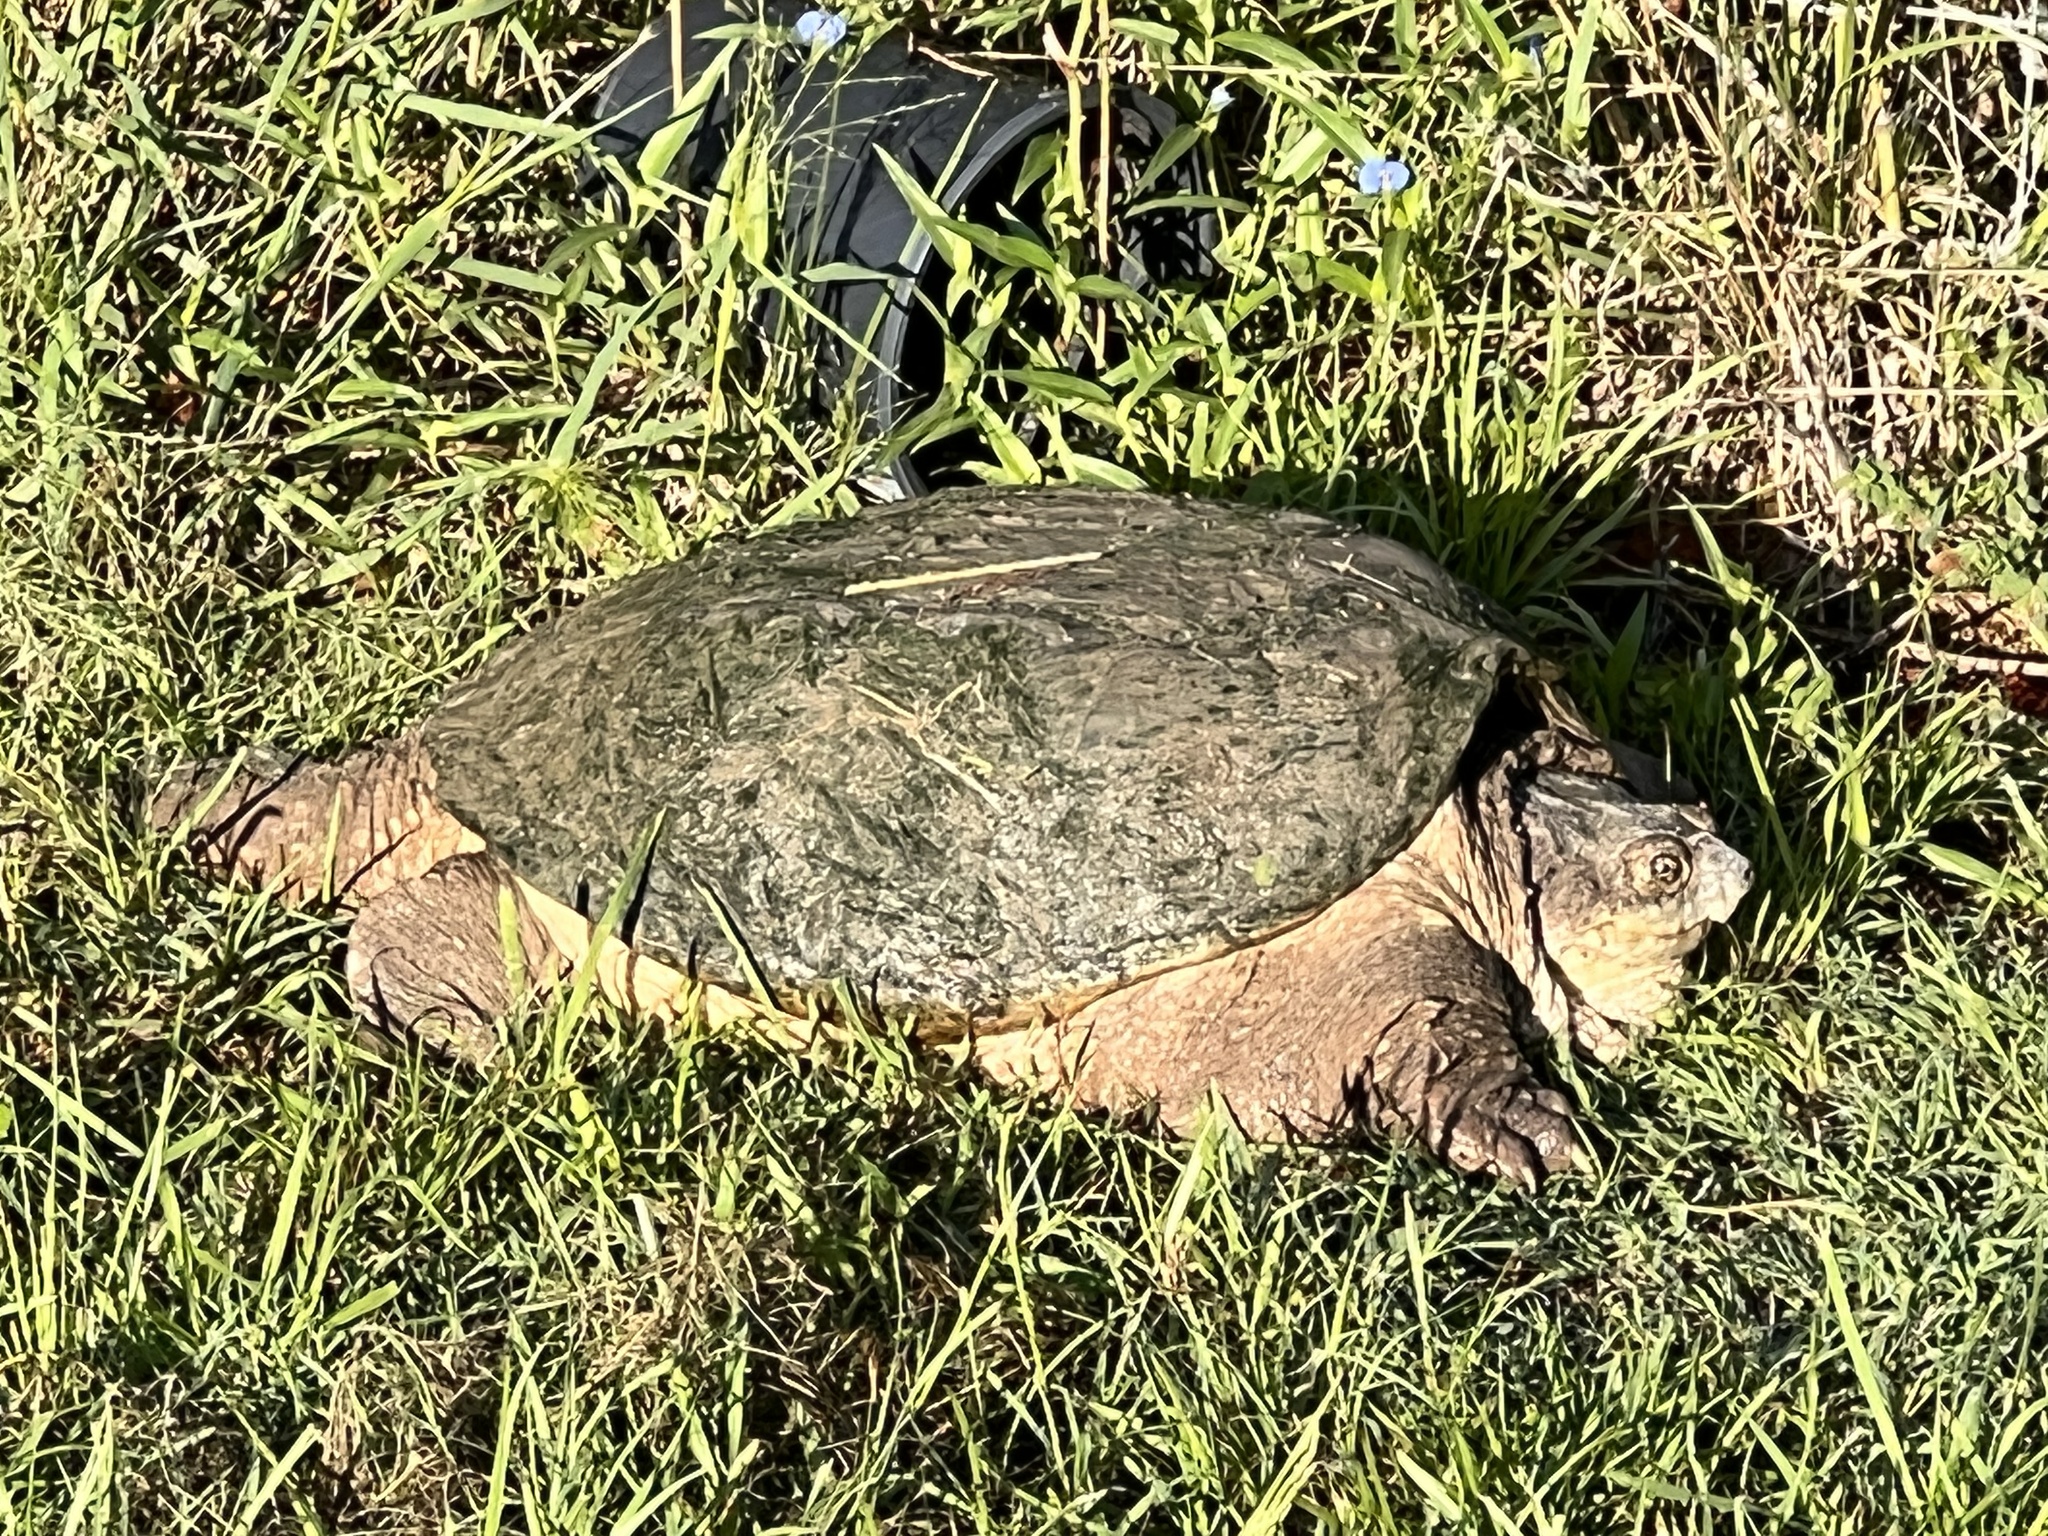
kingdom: Animalia
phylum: Chordata
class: Testudines
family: Chelydridae
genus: Chelydra
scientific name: Chelydra serpentina
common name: Common snapping turtle
